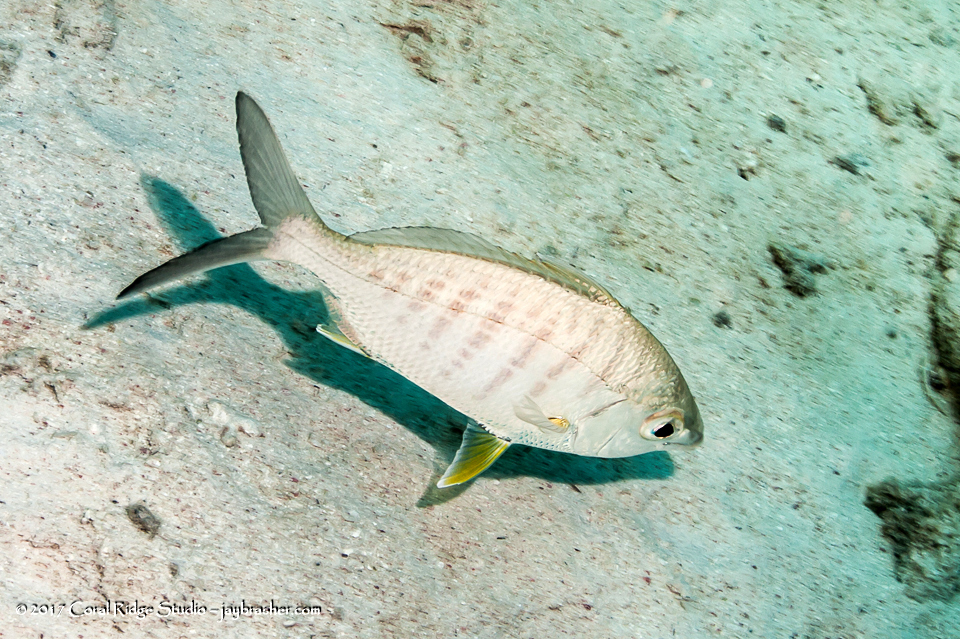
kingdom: Animalia
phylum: Chordata
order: Perciformes
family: Gerreidae
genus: Gerres
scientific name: Gerres cinereus
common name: Hedow
